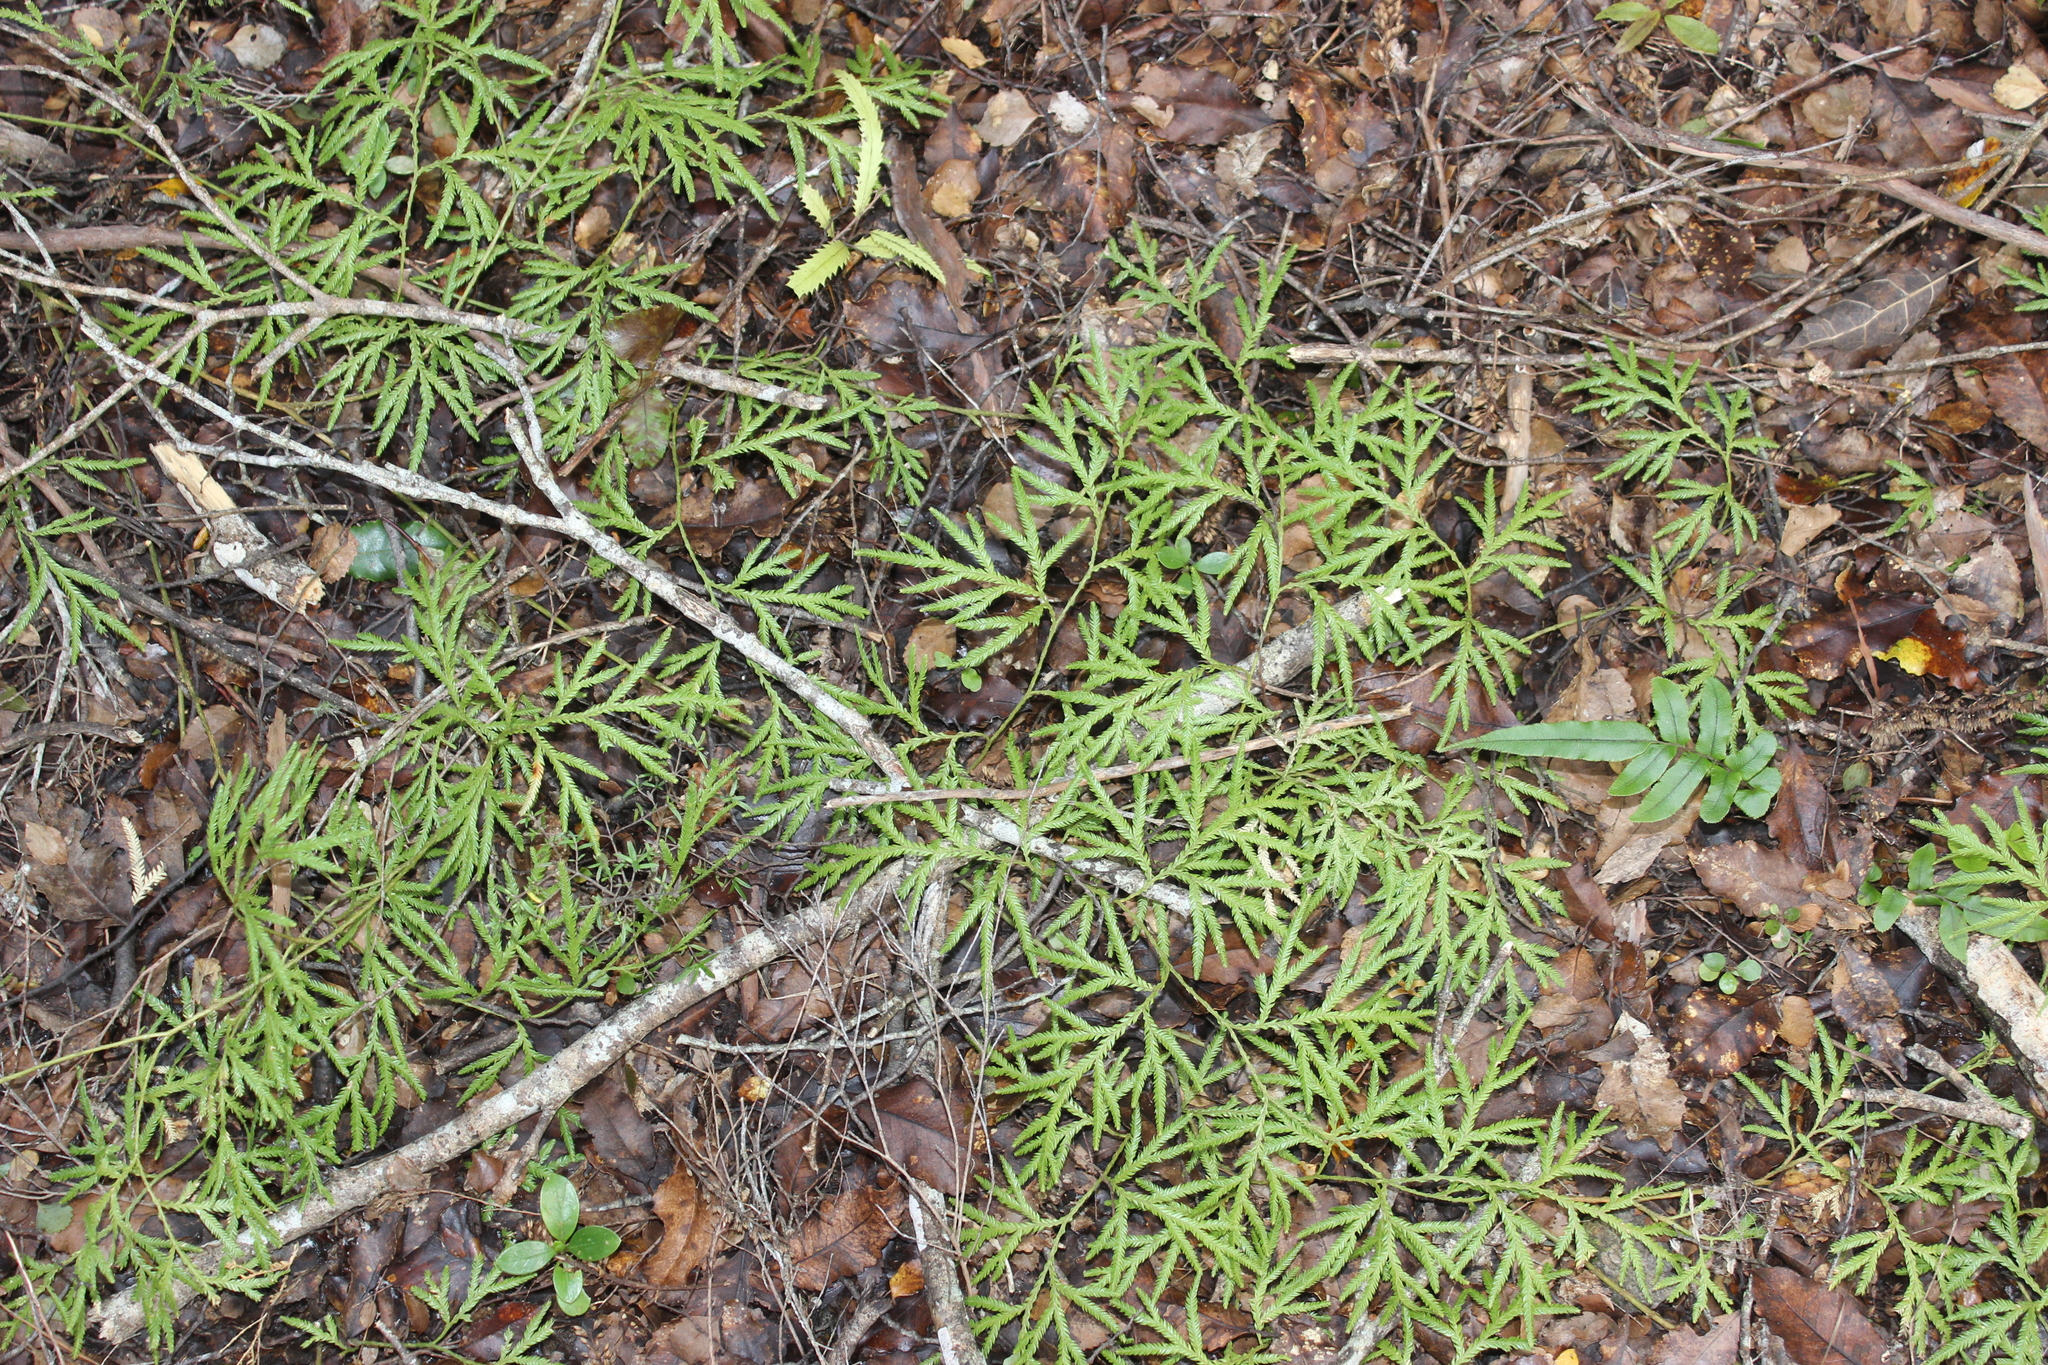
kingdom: Plantae
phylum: Tracheophyta
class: Lycopodiopsida
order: Lycopodiales
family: Lycopodiaceae
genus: Lycopodium
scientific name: Lycopodium volubile
